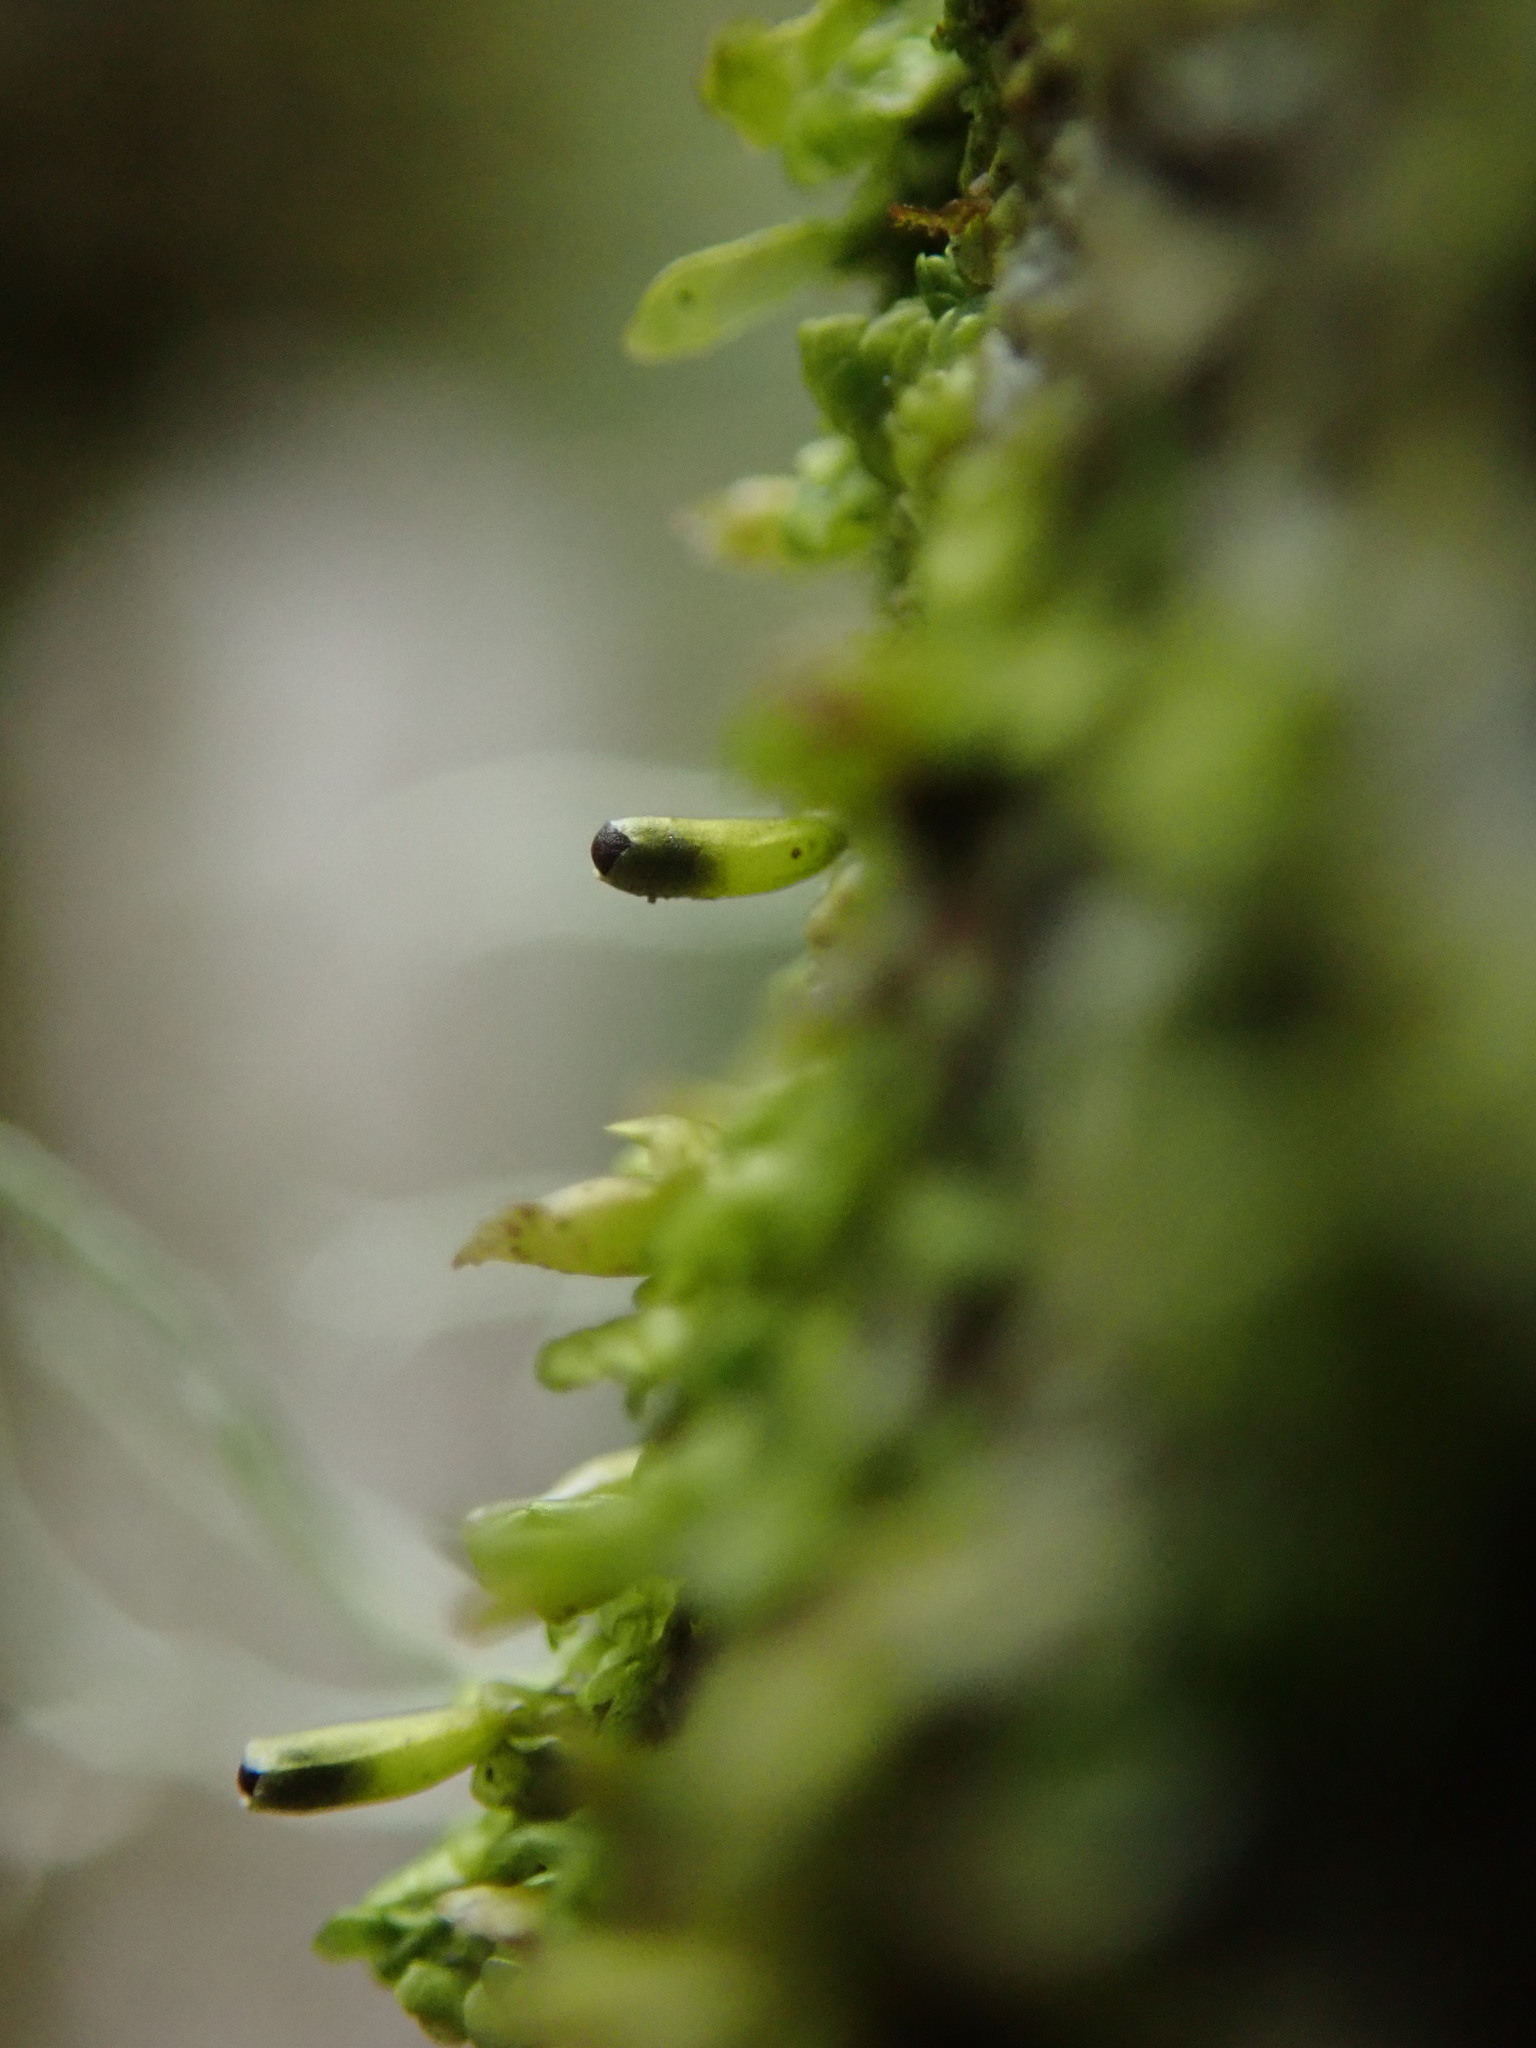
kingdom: Plantae
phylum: Marchantiophyta
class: Jungermanniopsida
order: Porellales
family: Radulaceae
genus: Radula
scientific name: Radula complanata
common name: Flat-leaved scalewort
